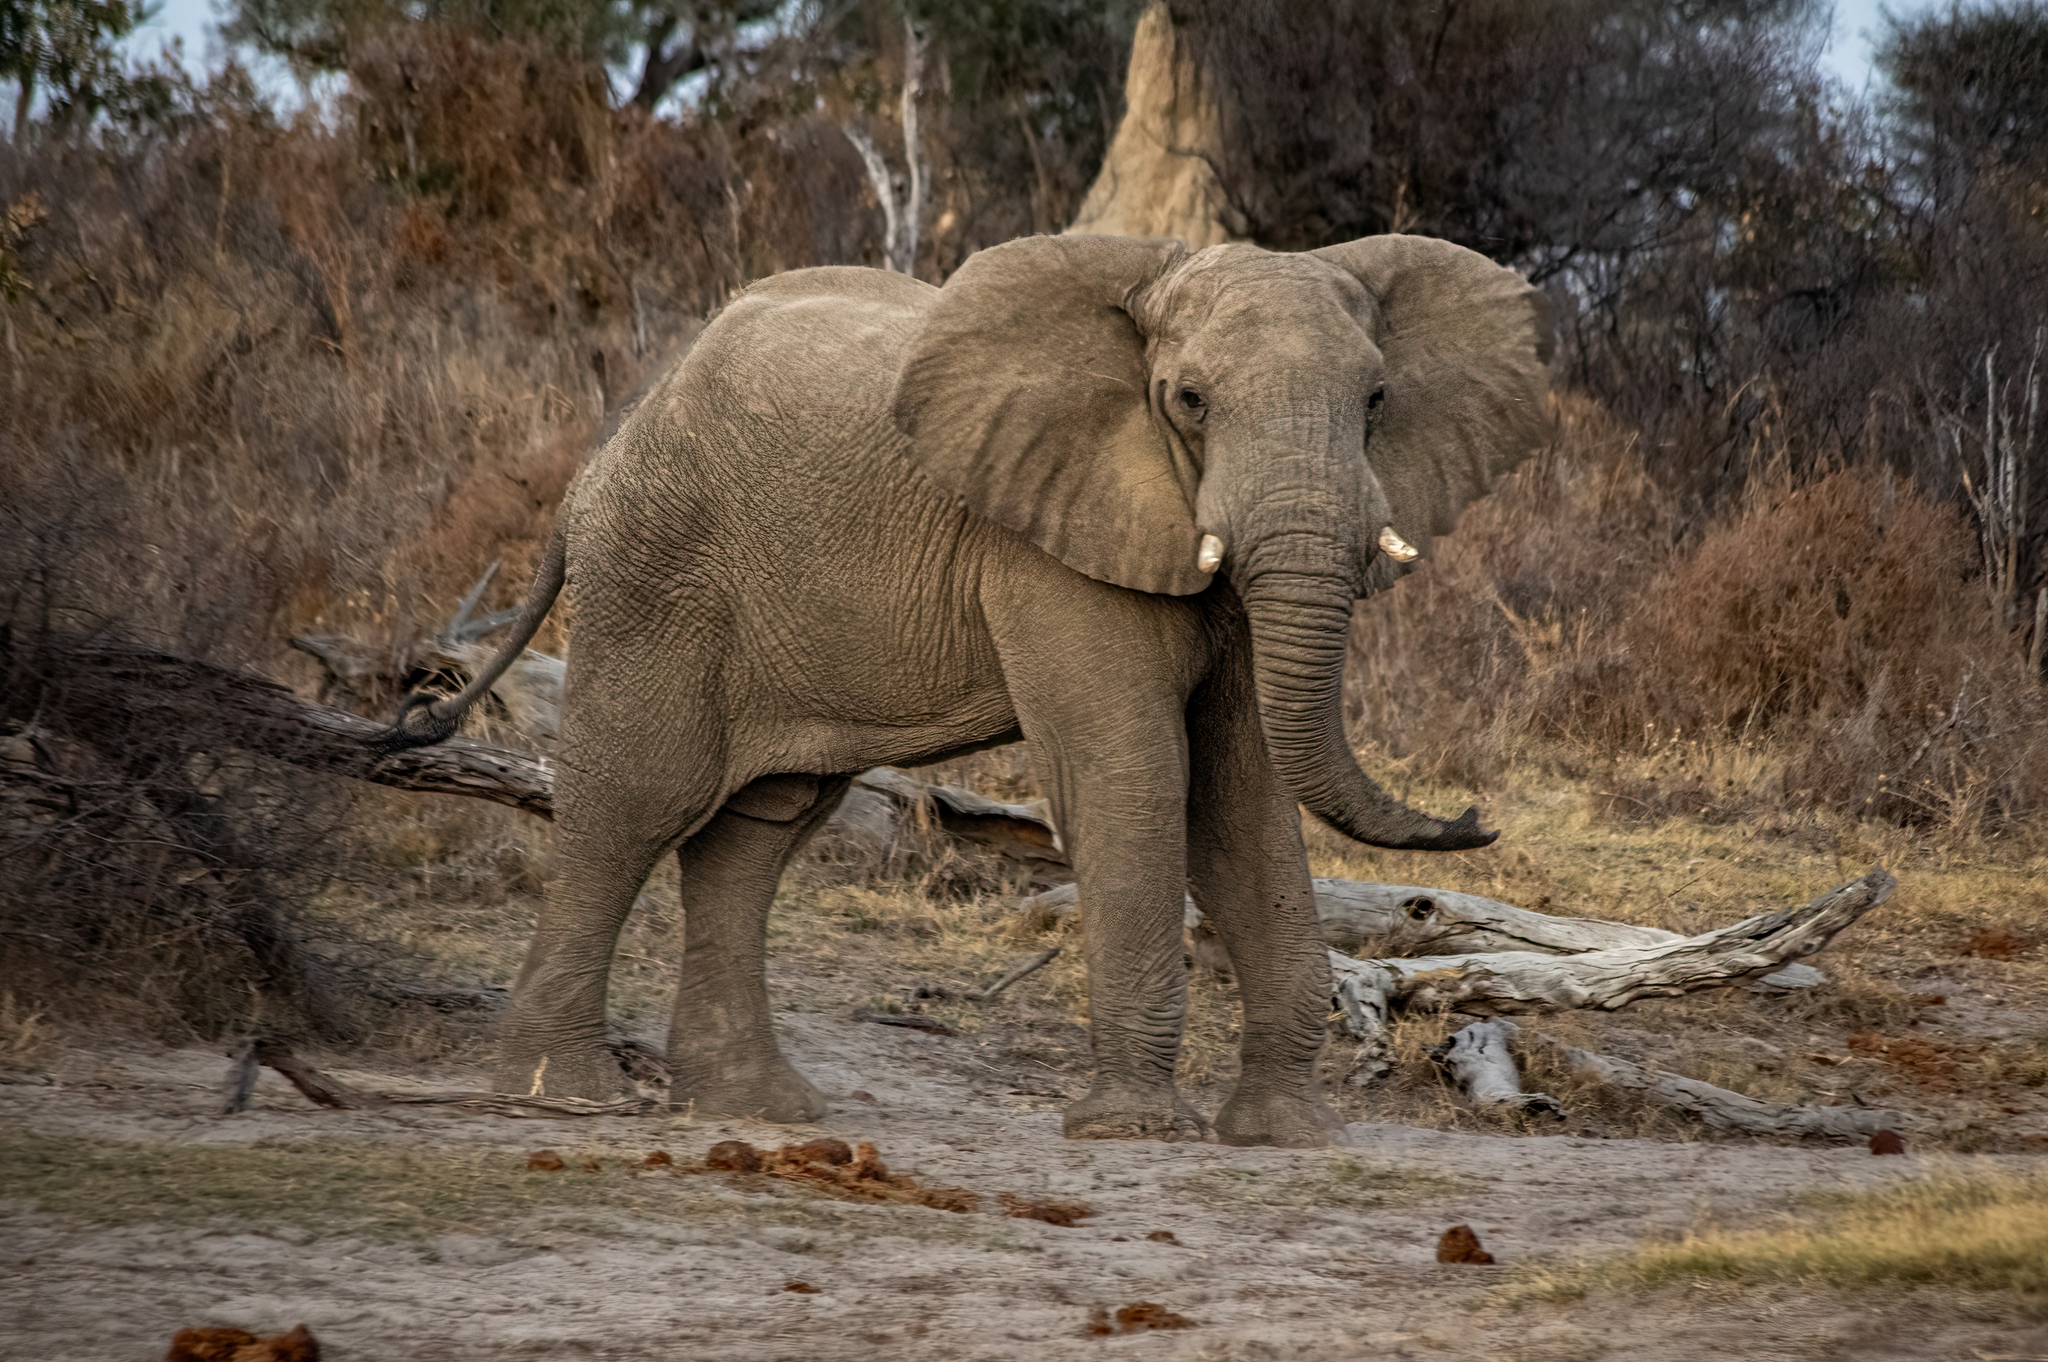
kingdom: Animalia
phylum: Chordata
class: Mammalia
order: Proboscidea
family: Elephantidae
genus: Loxodonta
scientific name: Loxodonta africana
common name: African elephant
